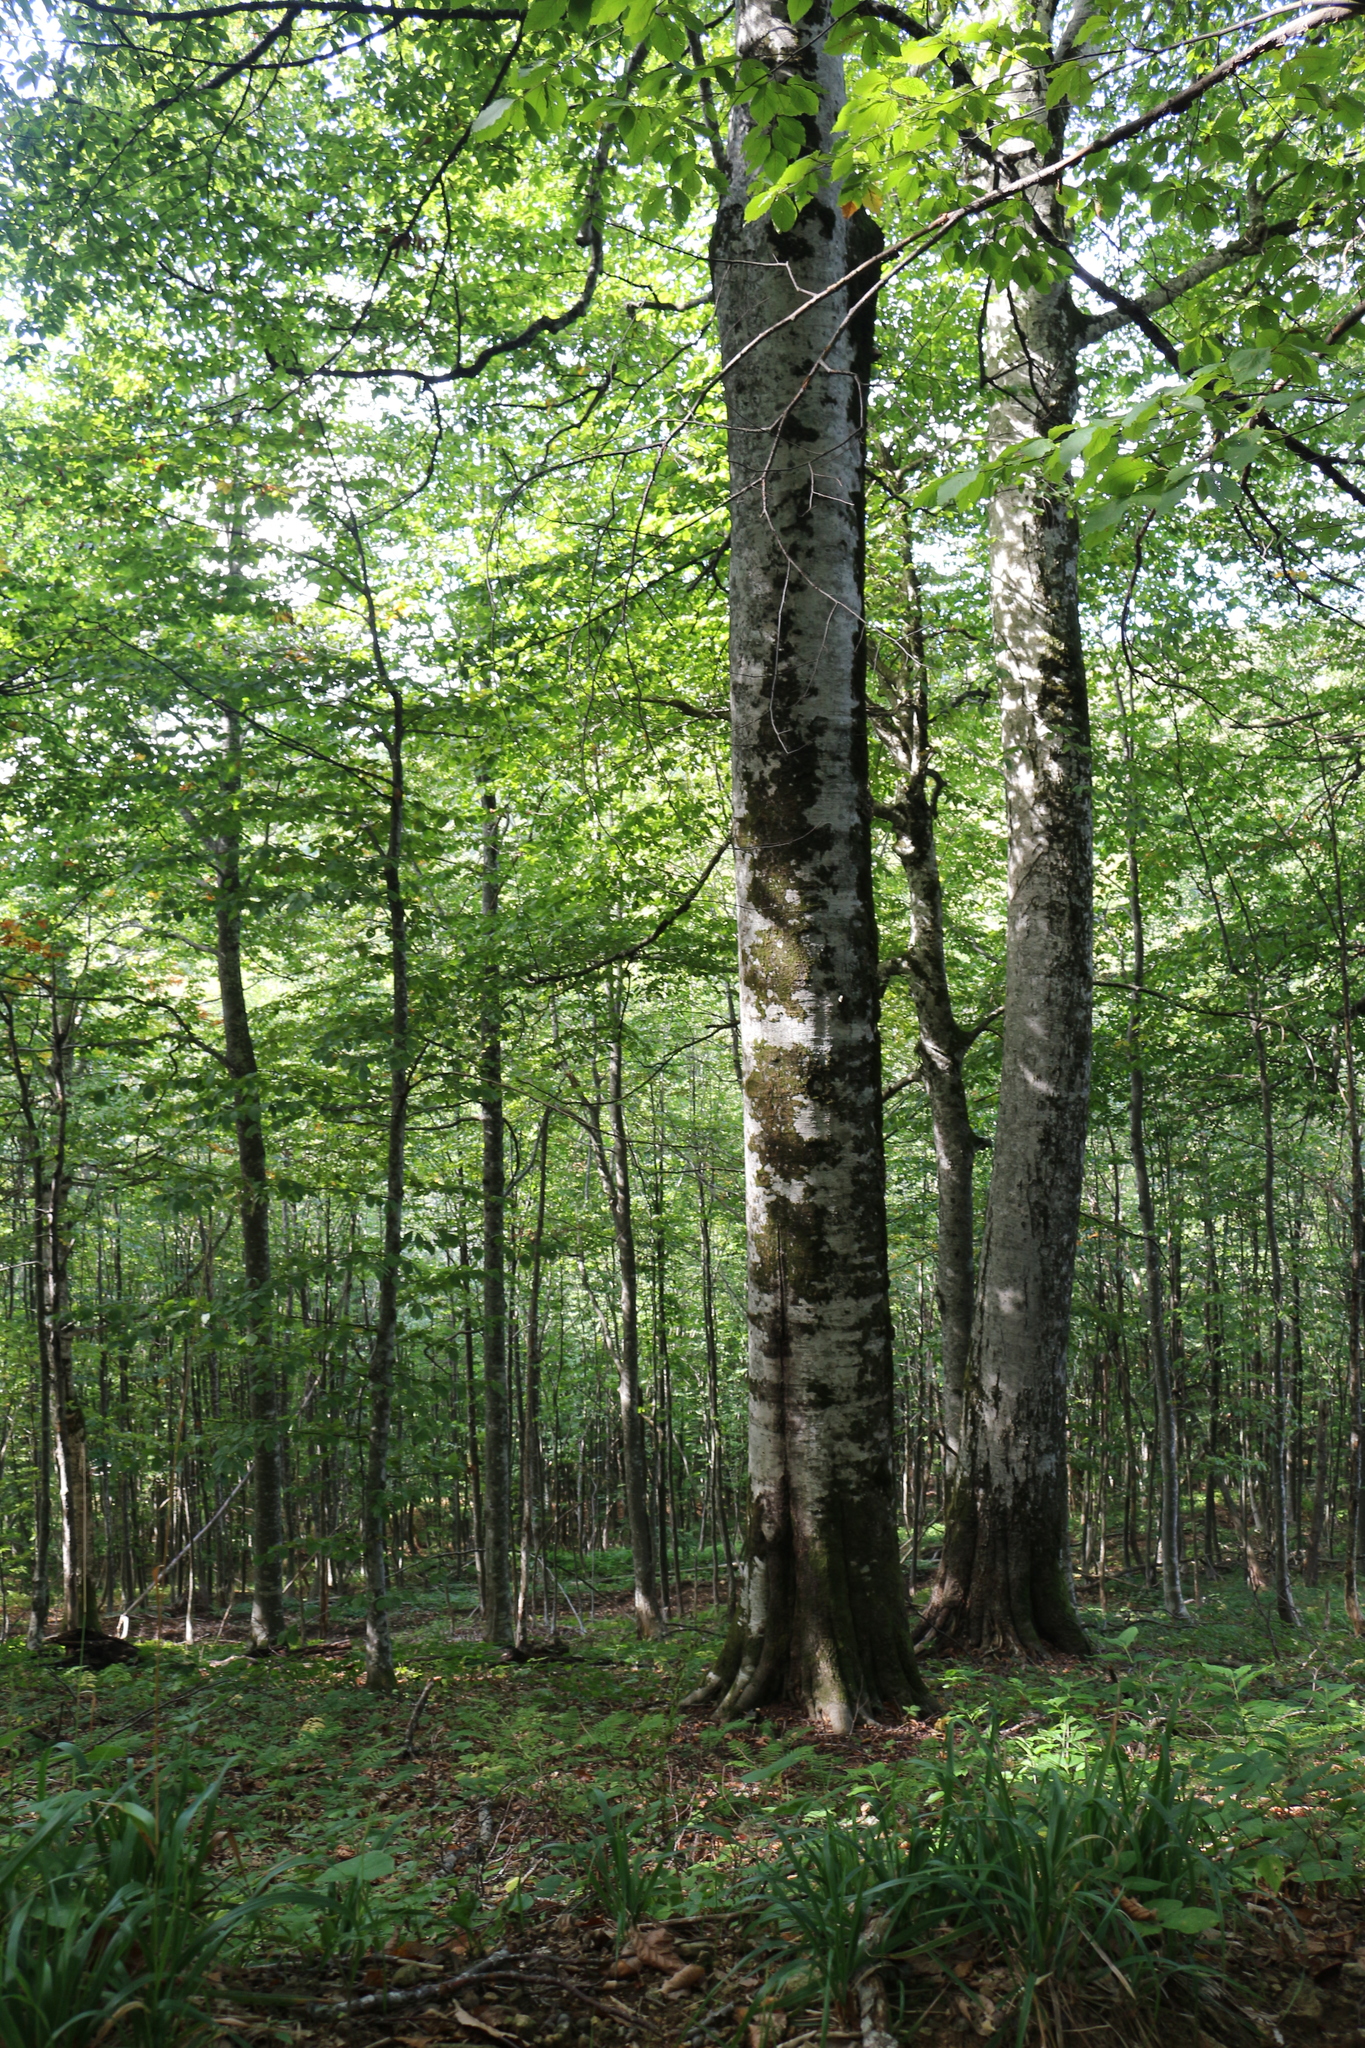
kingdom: Plantae
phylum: Tracheophyta
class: Magnoliopsida
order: Fagales
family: Fagaceae
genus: Fagus
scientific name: Fagus orientalis
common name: Oriental beech
